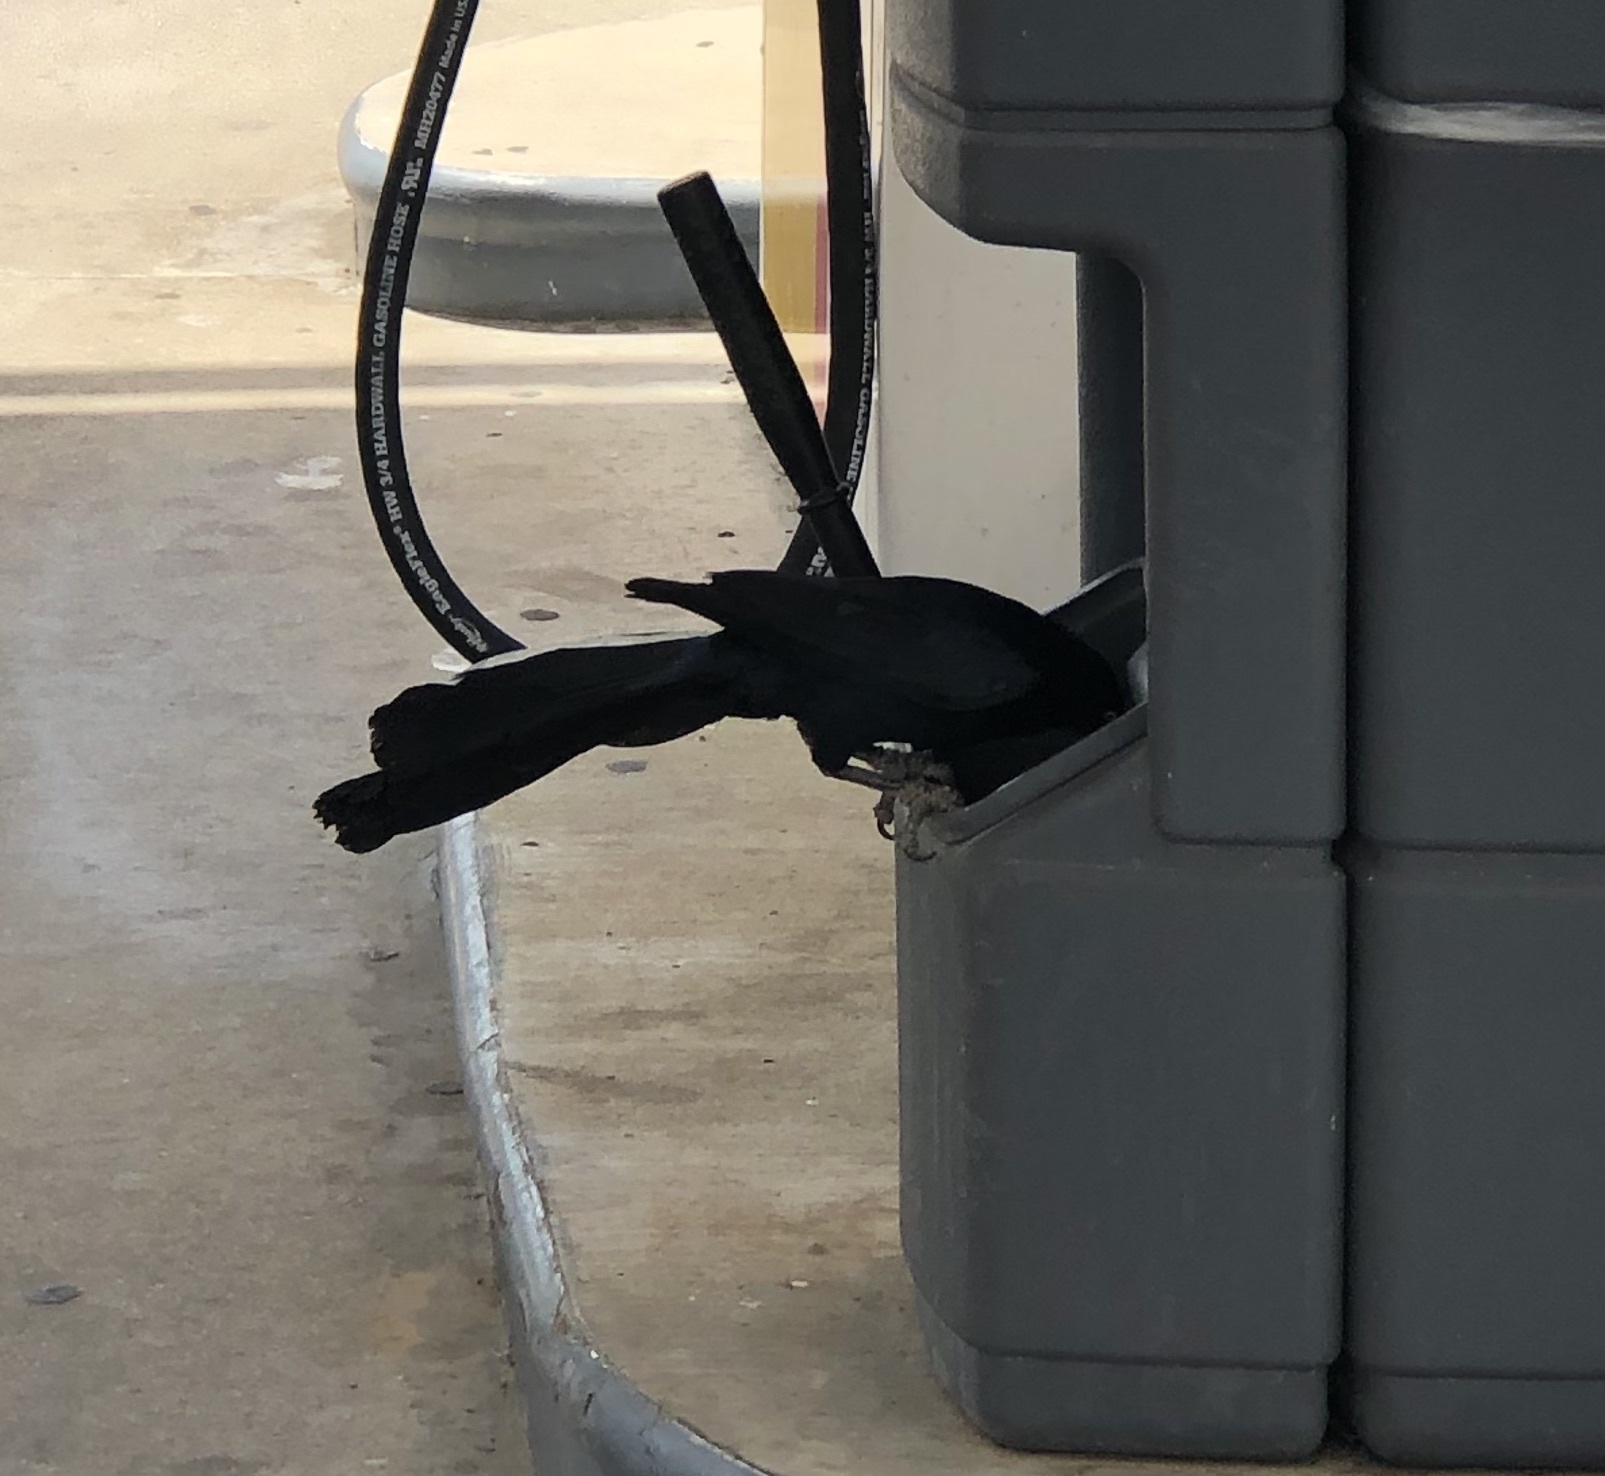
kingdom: Animalia
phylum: Chordata
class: Aves
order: Passeriformes
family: Icteridae
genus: Quiscalus
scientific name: Quiscalus mexicanus
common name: Great-tailed grackle
